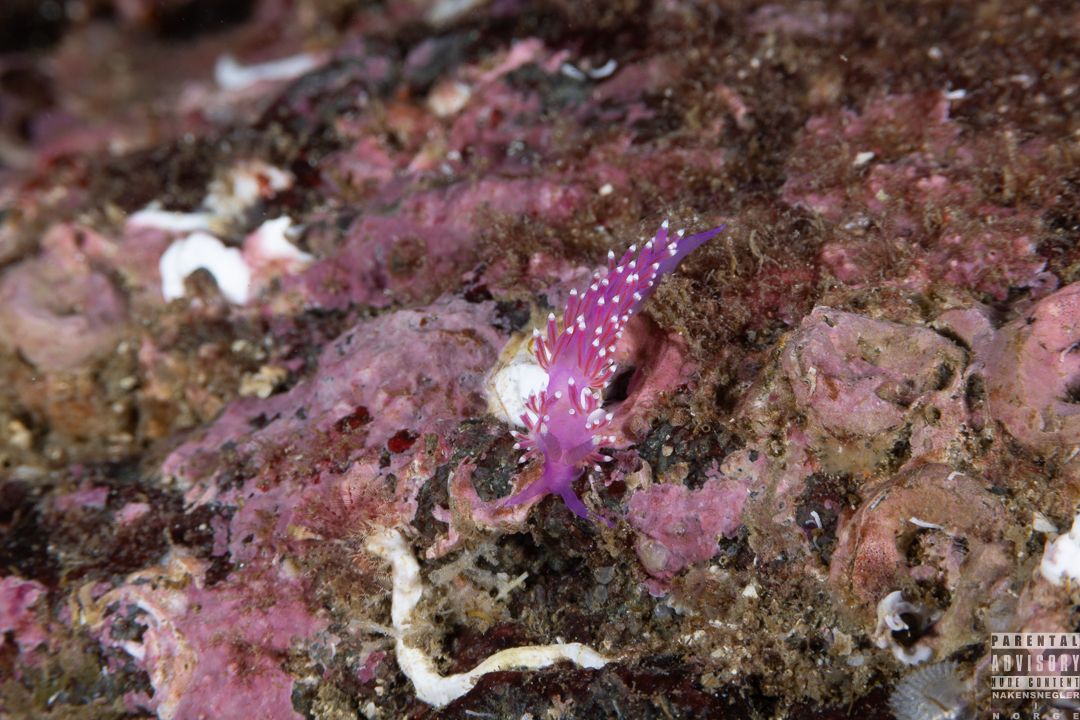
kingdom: Animalia
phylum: Mollusca
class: Gastropoda
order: Nudibranchia
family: Flabellinidae
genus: Edmundsella
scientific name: Edmundsella pedata
